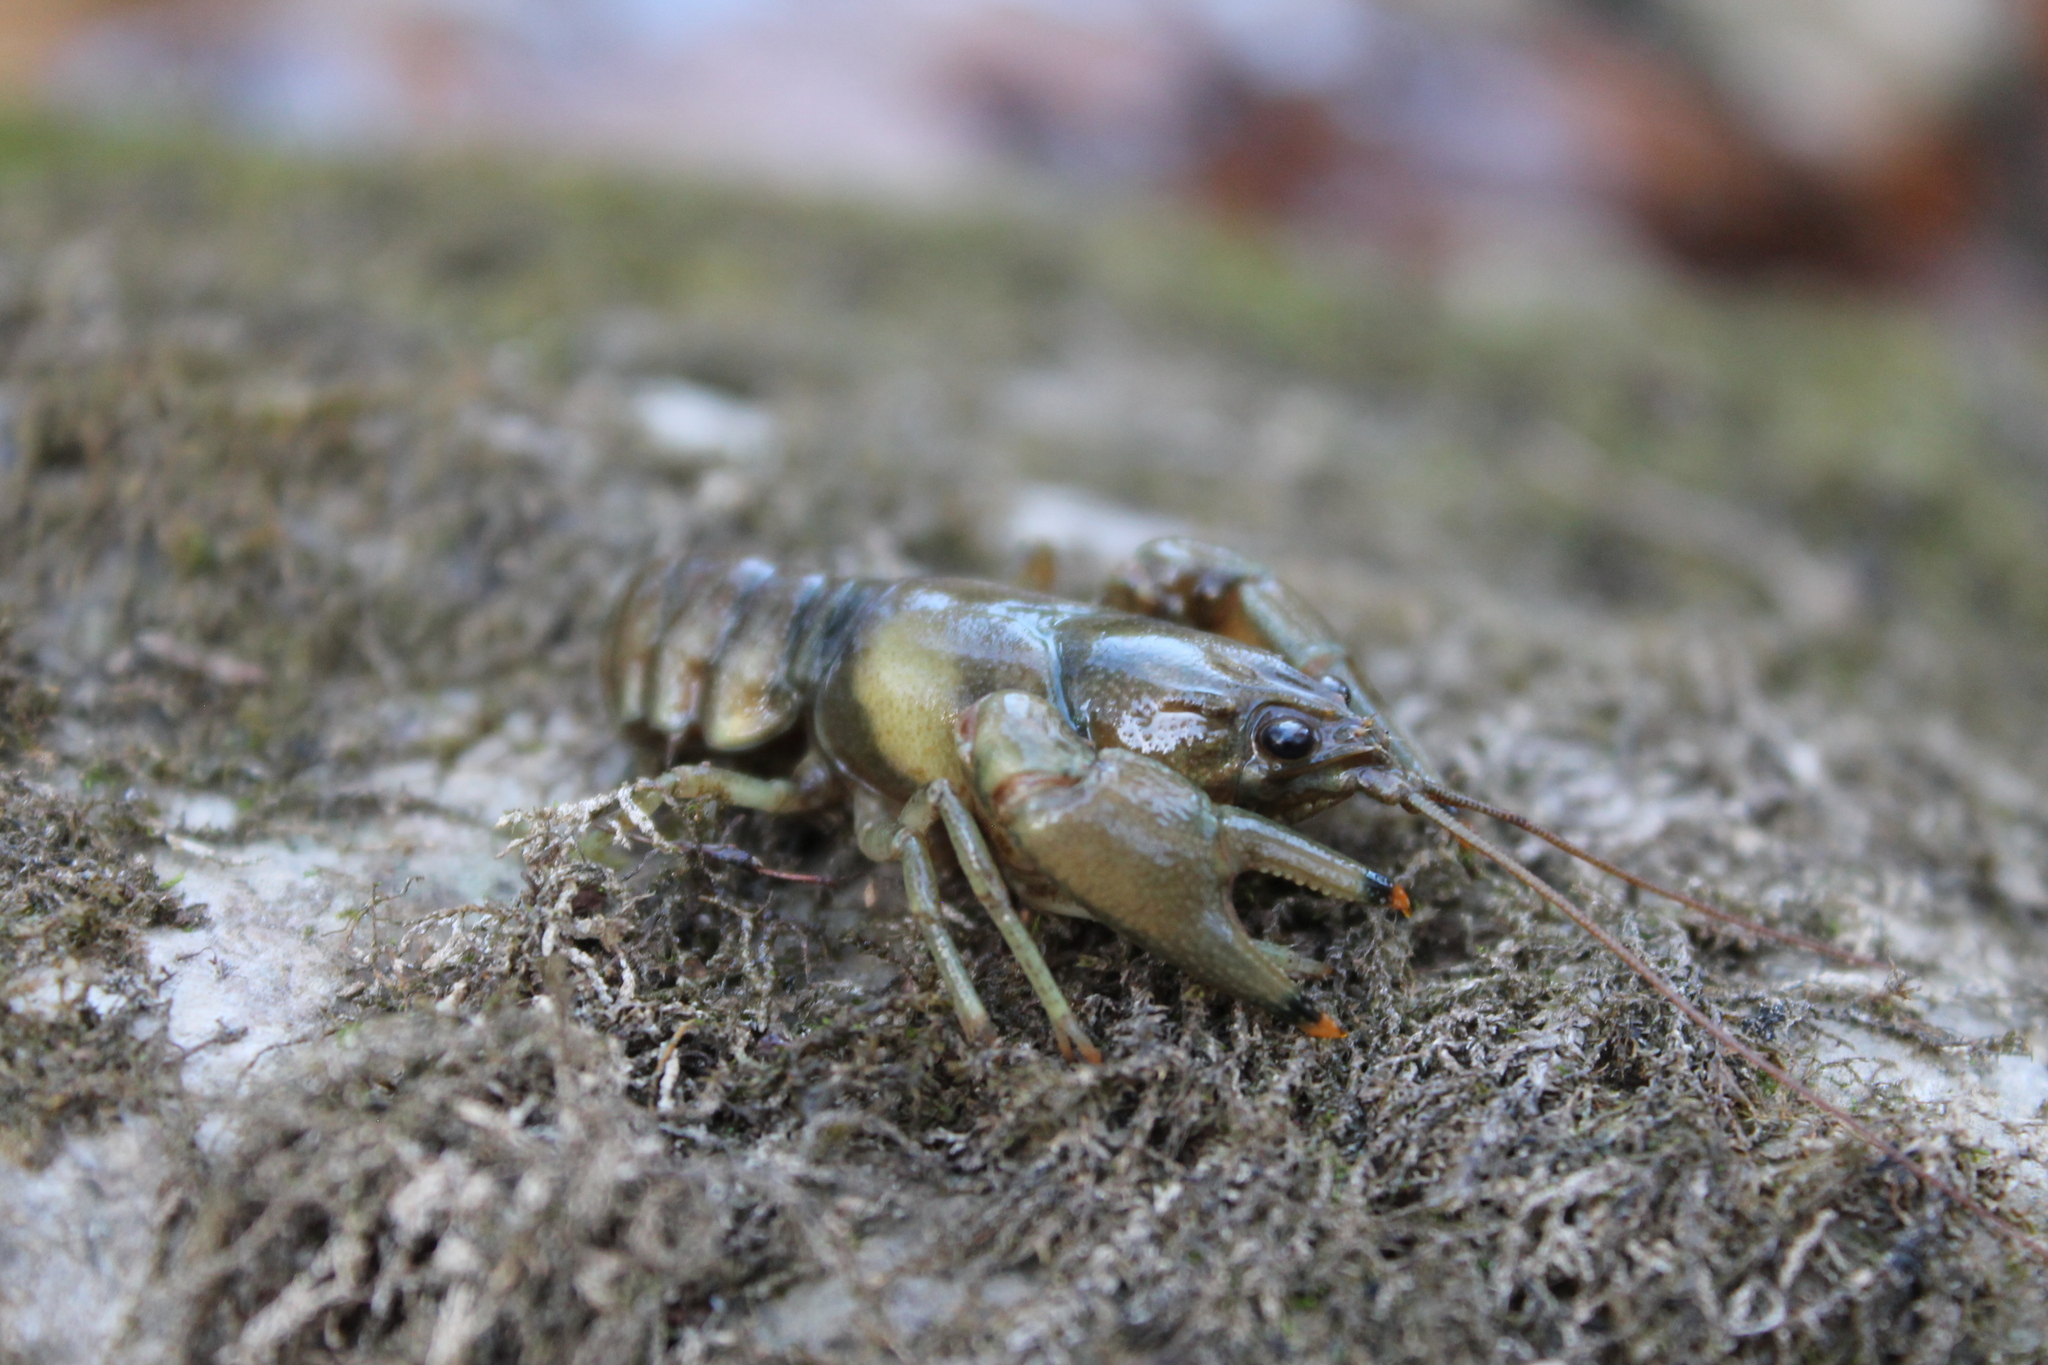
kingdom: Animalia
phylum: Arthropoda
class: Malacostraca
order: Decapoda
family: Cambaridae
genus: Faxonius
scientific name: Faxonius placidus
